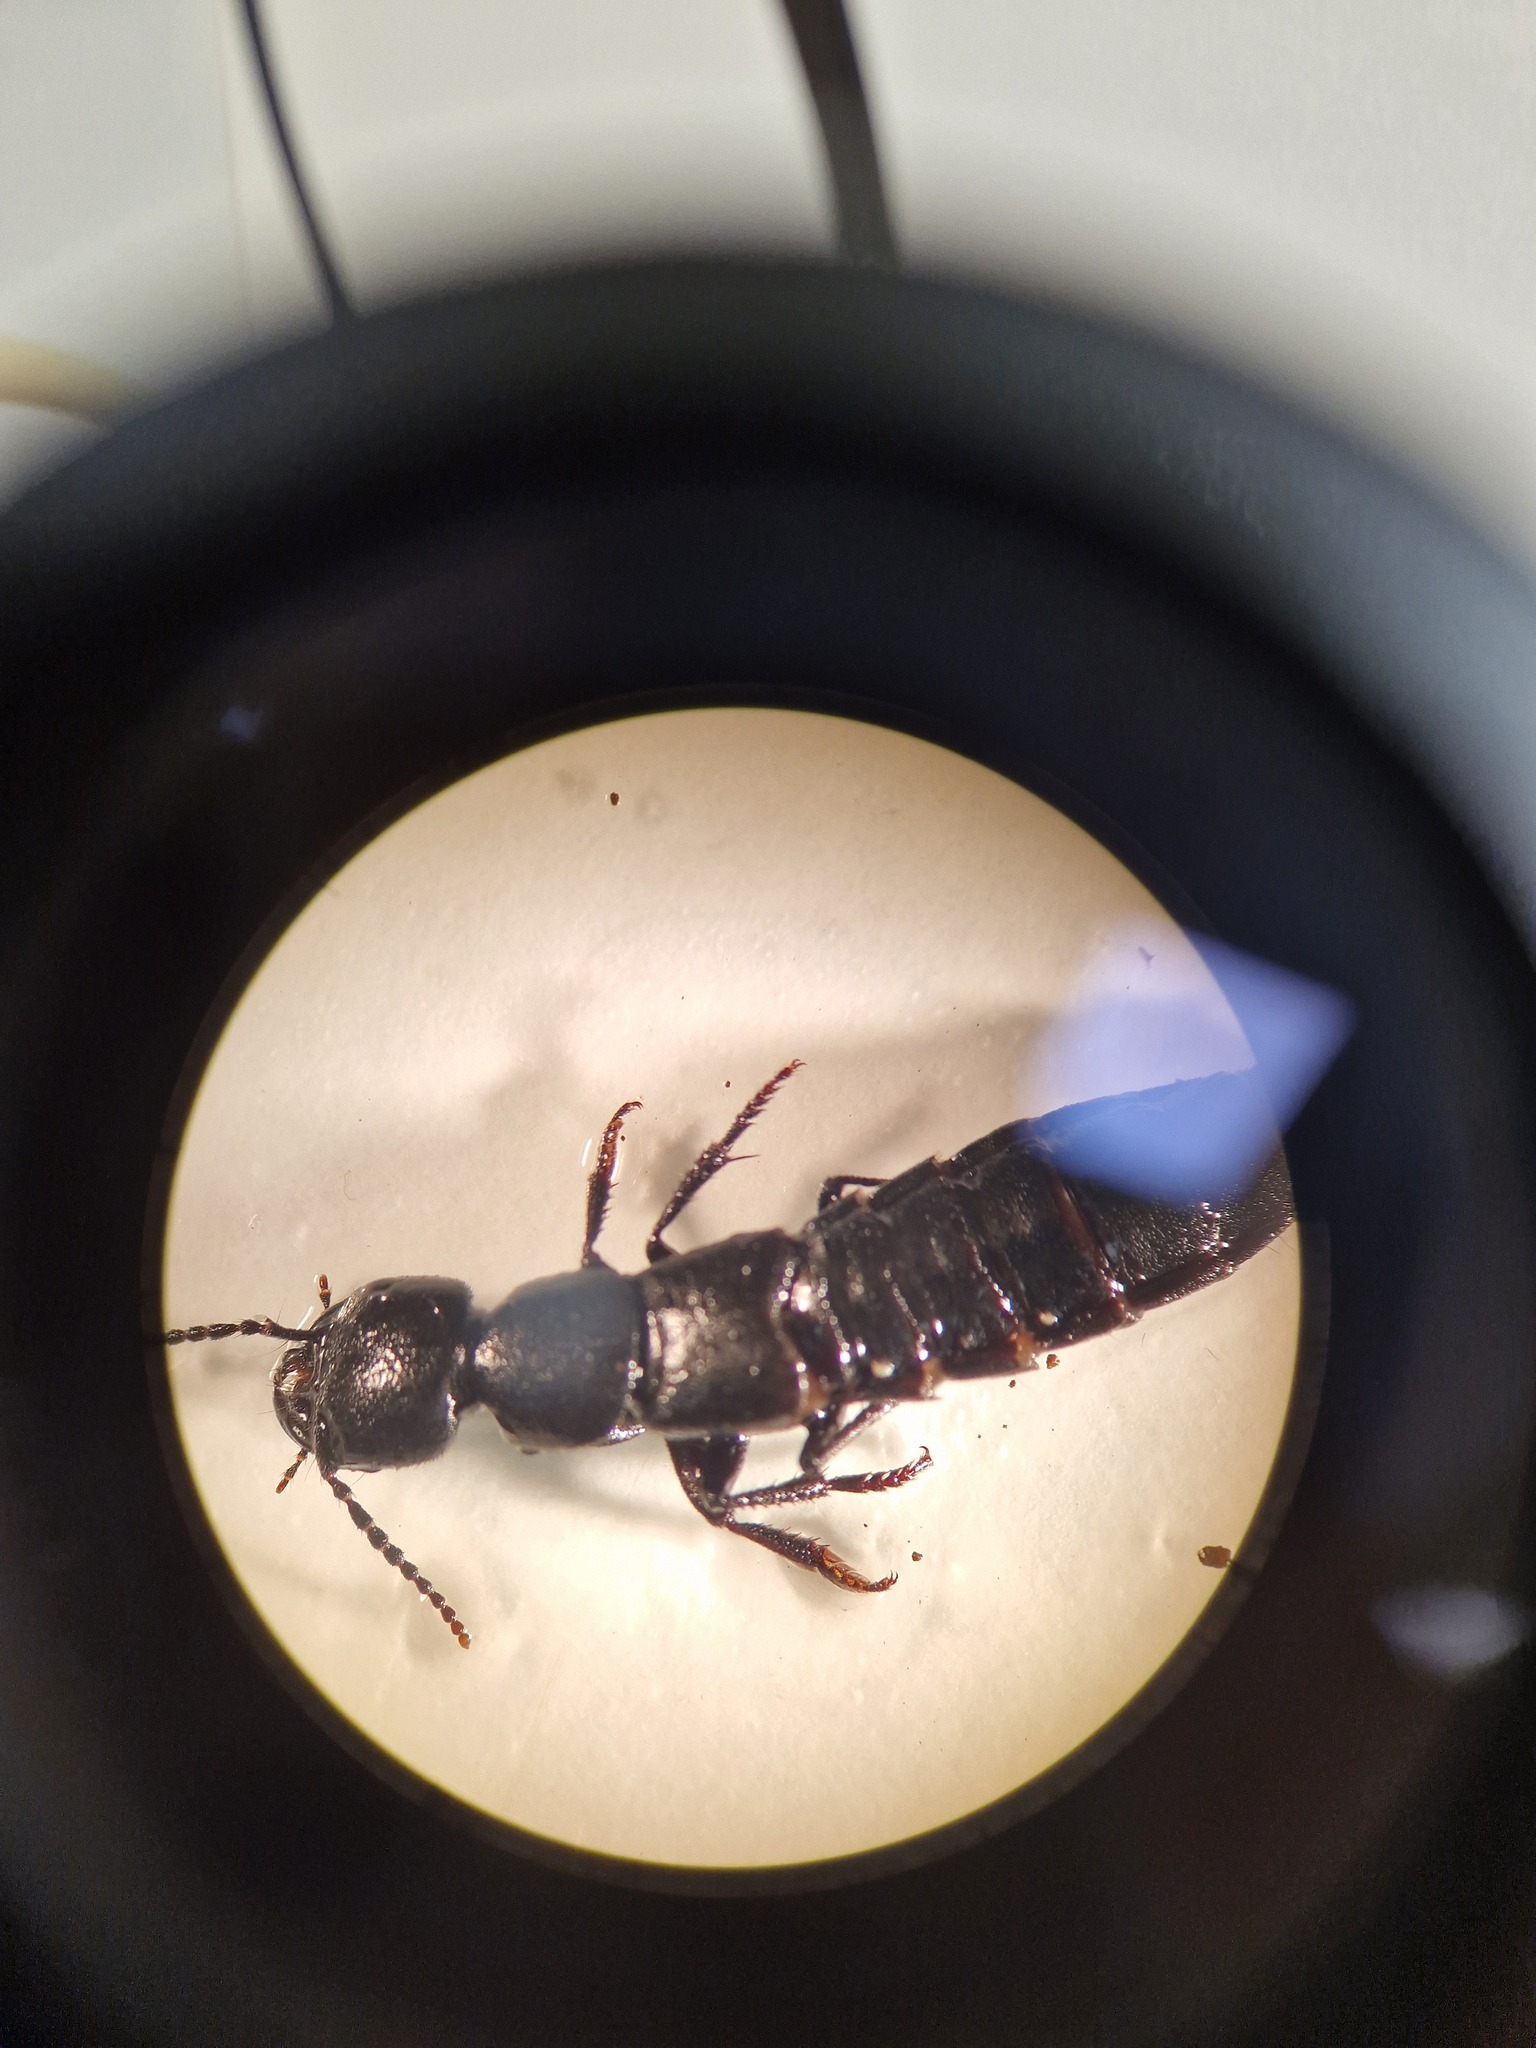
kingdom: Animalia
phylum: Arthropoda
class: Insecta
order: Coleoptera
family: Staphylinidae
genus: Ocypus
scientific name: Ocypus olens
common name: Devil's coach-horse
